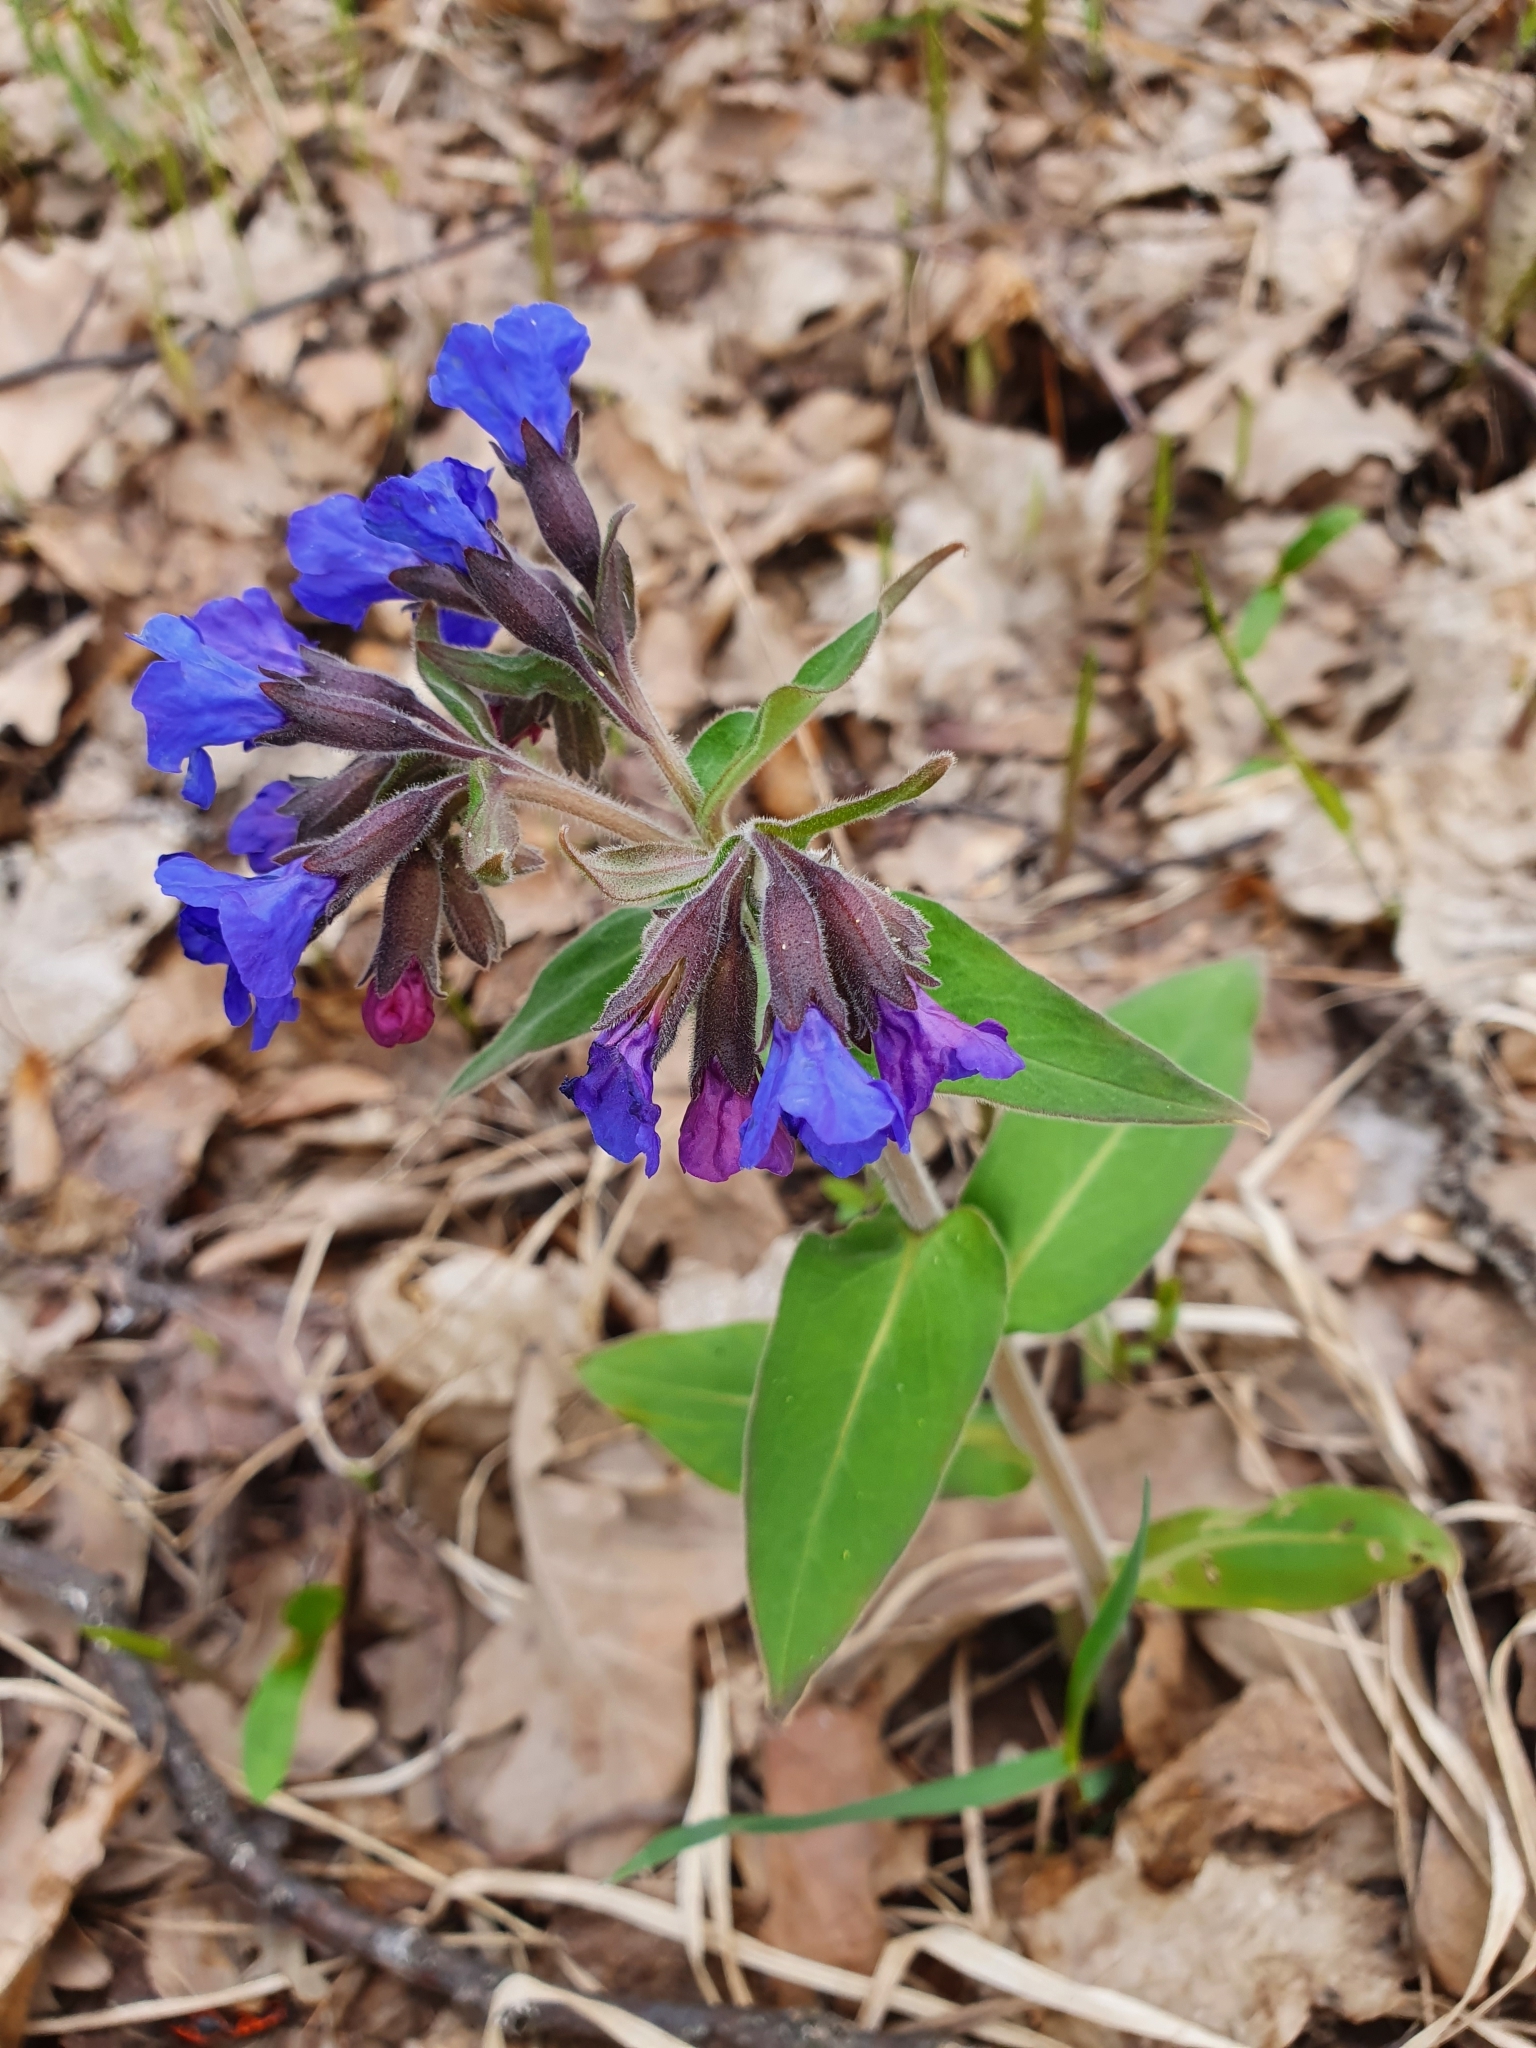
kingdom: Plantae
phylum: Tracheophyta
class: Magnoliopsida
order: Boraginales
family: Boraginaceae
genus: Pulmonaria
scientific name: Pulmonaria mollis
